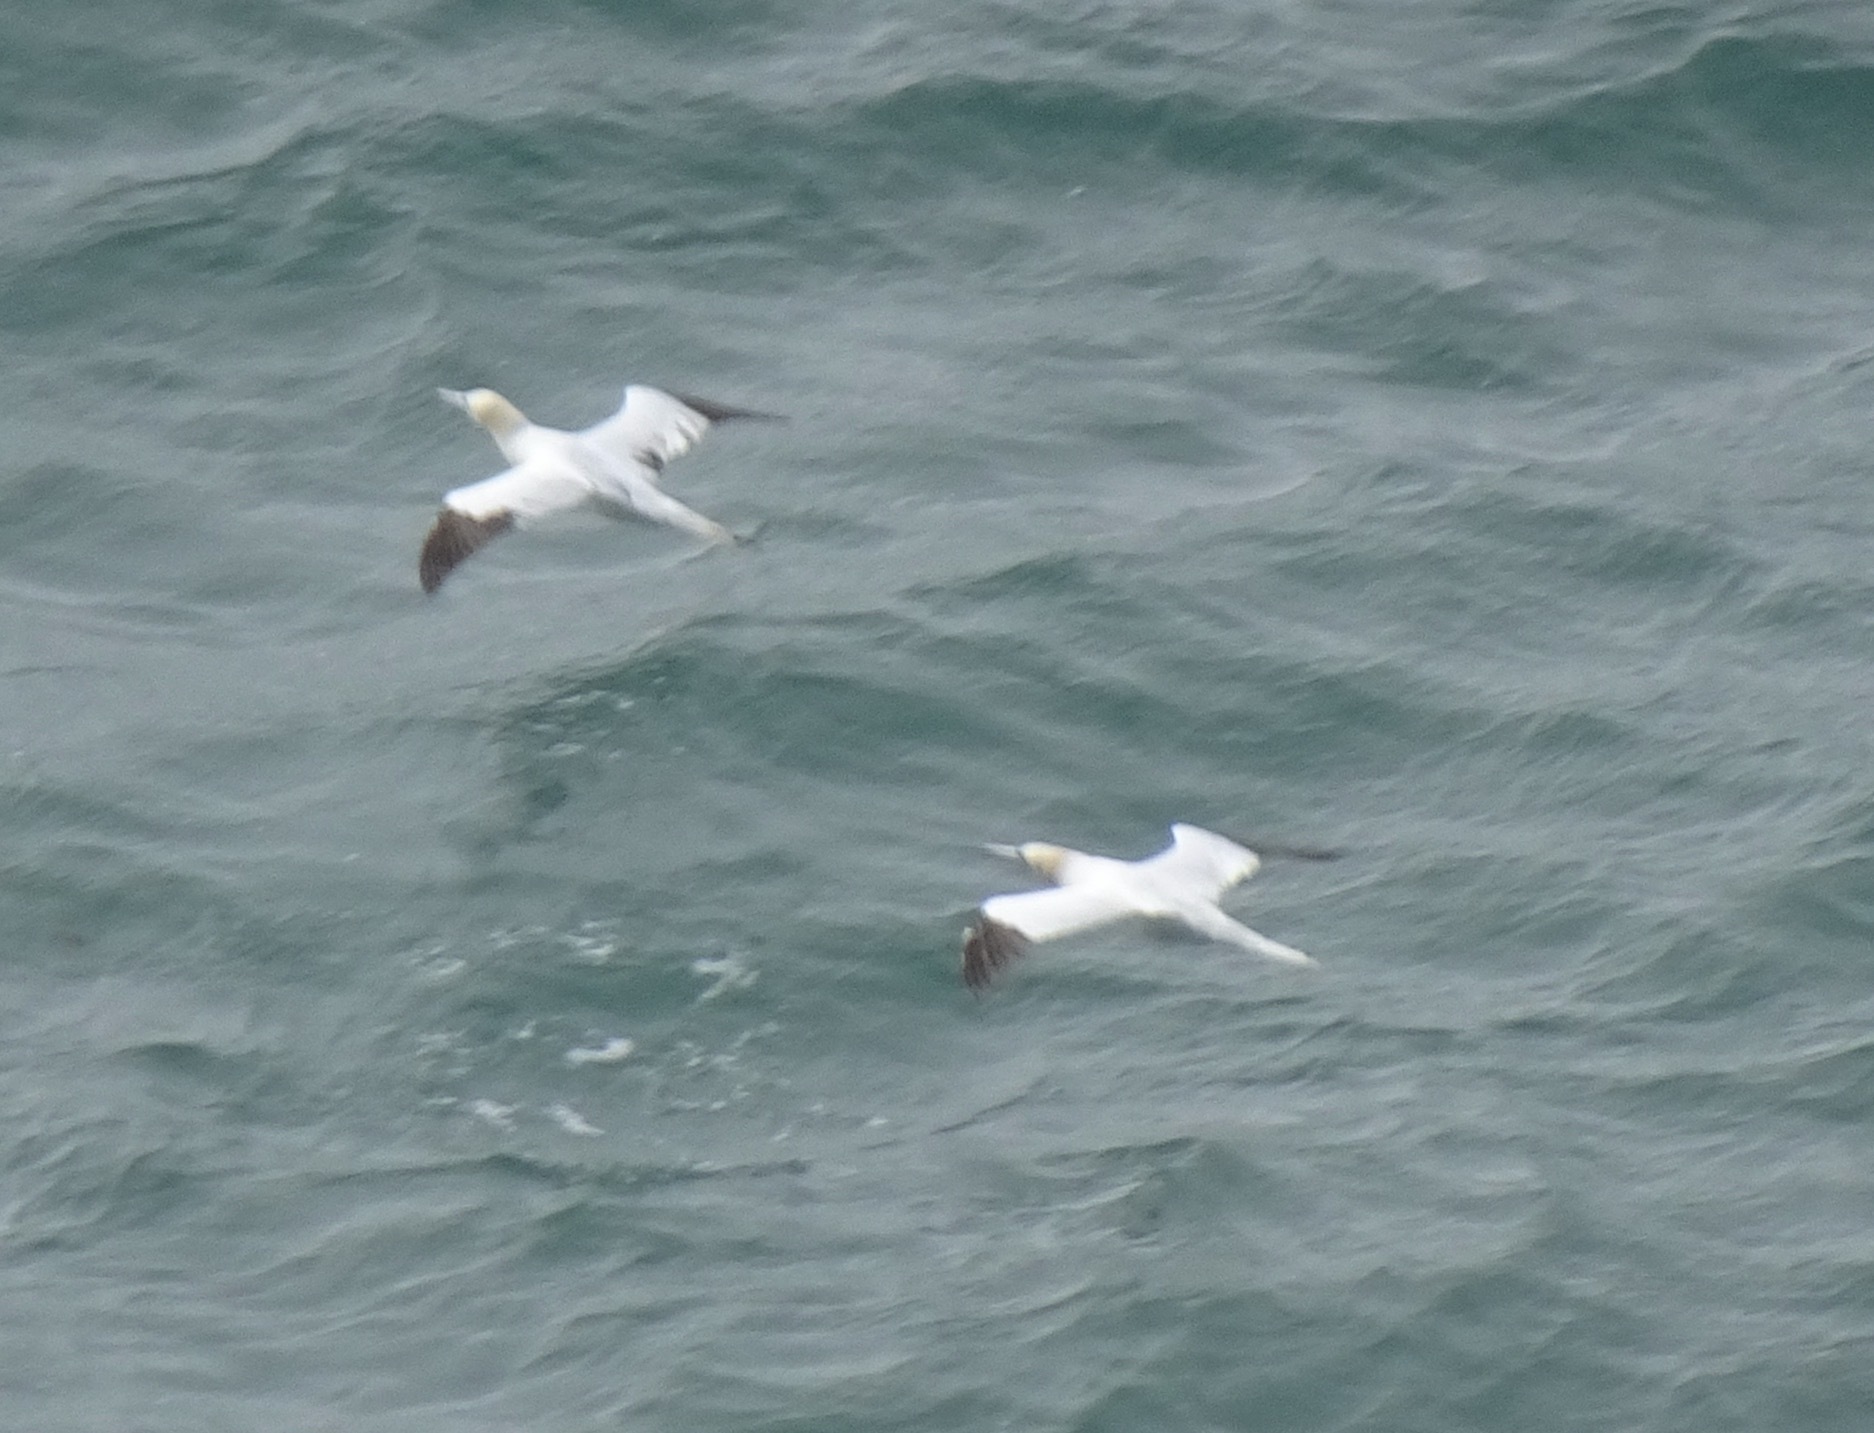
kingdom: Animalia
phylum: Chordata
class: Aves
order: Suliformes
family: Sulidae
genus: Morus
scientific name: Morus bassanus
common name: Northern gannet
